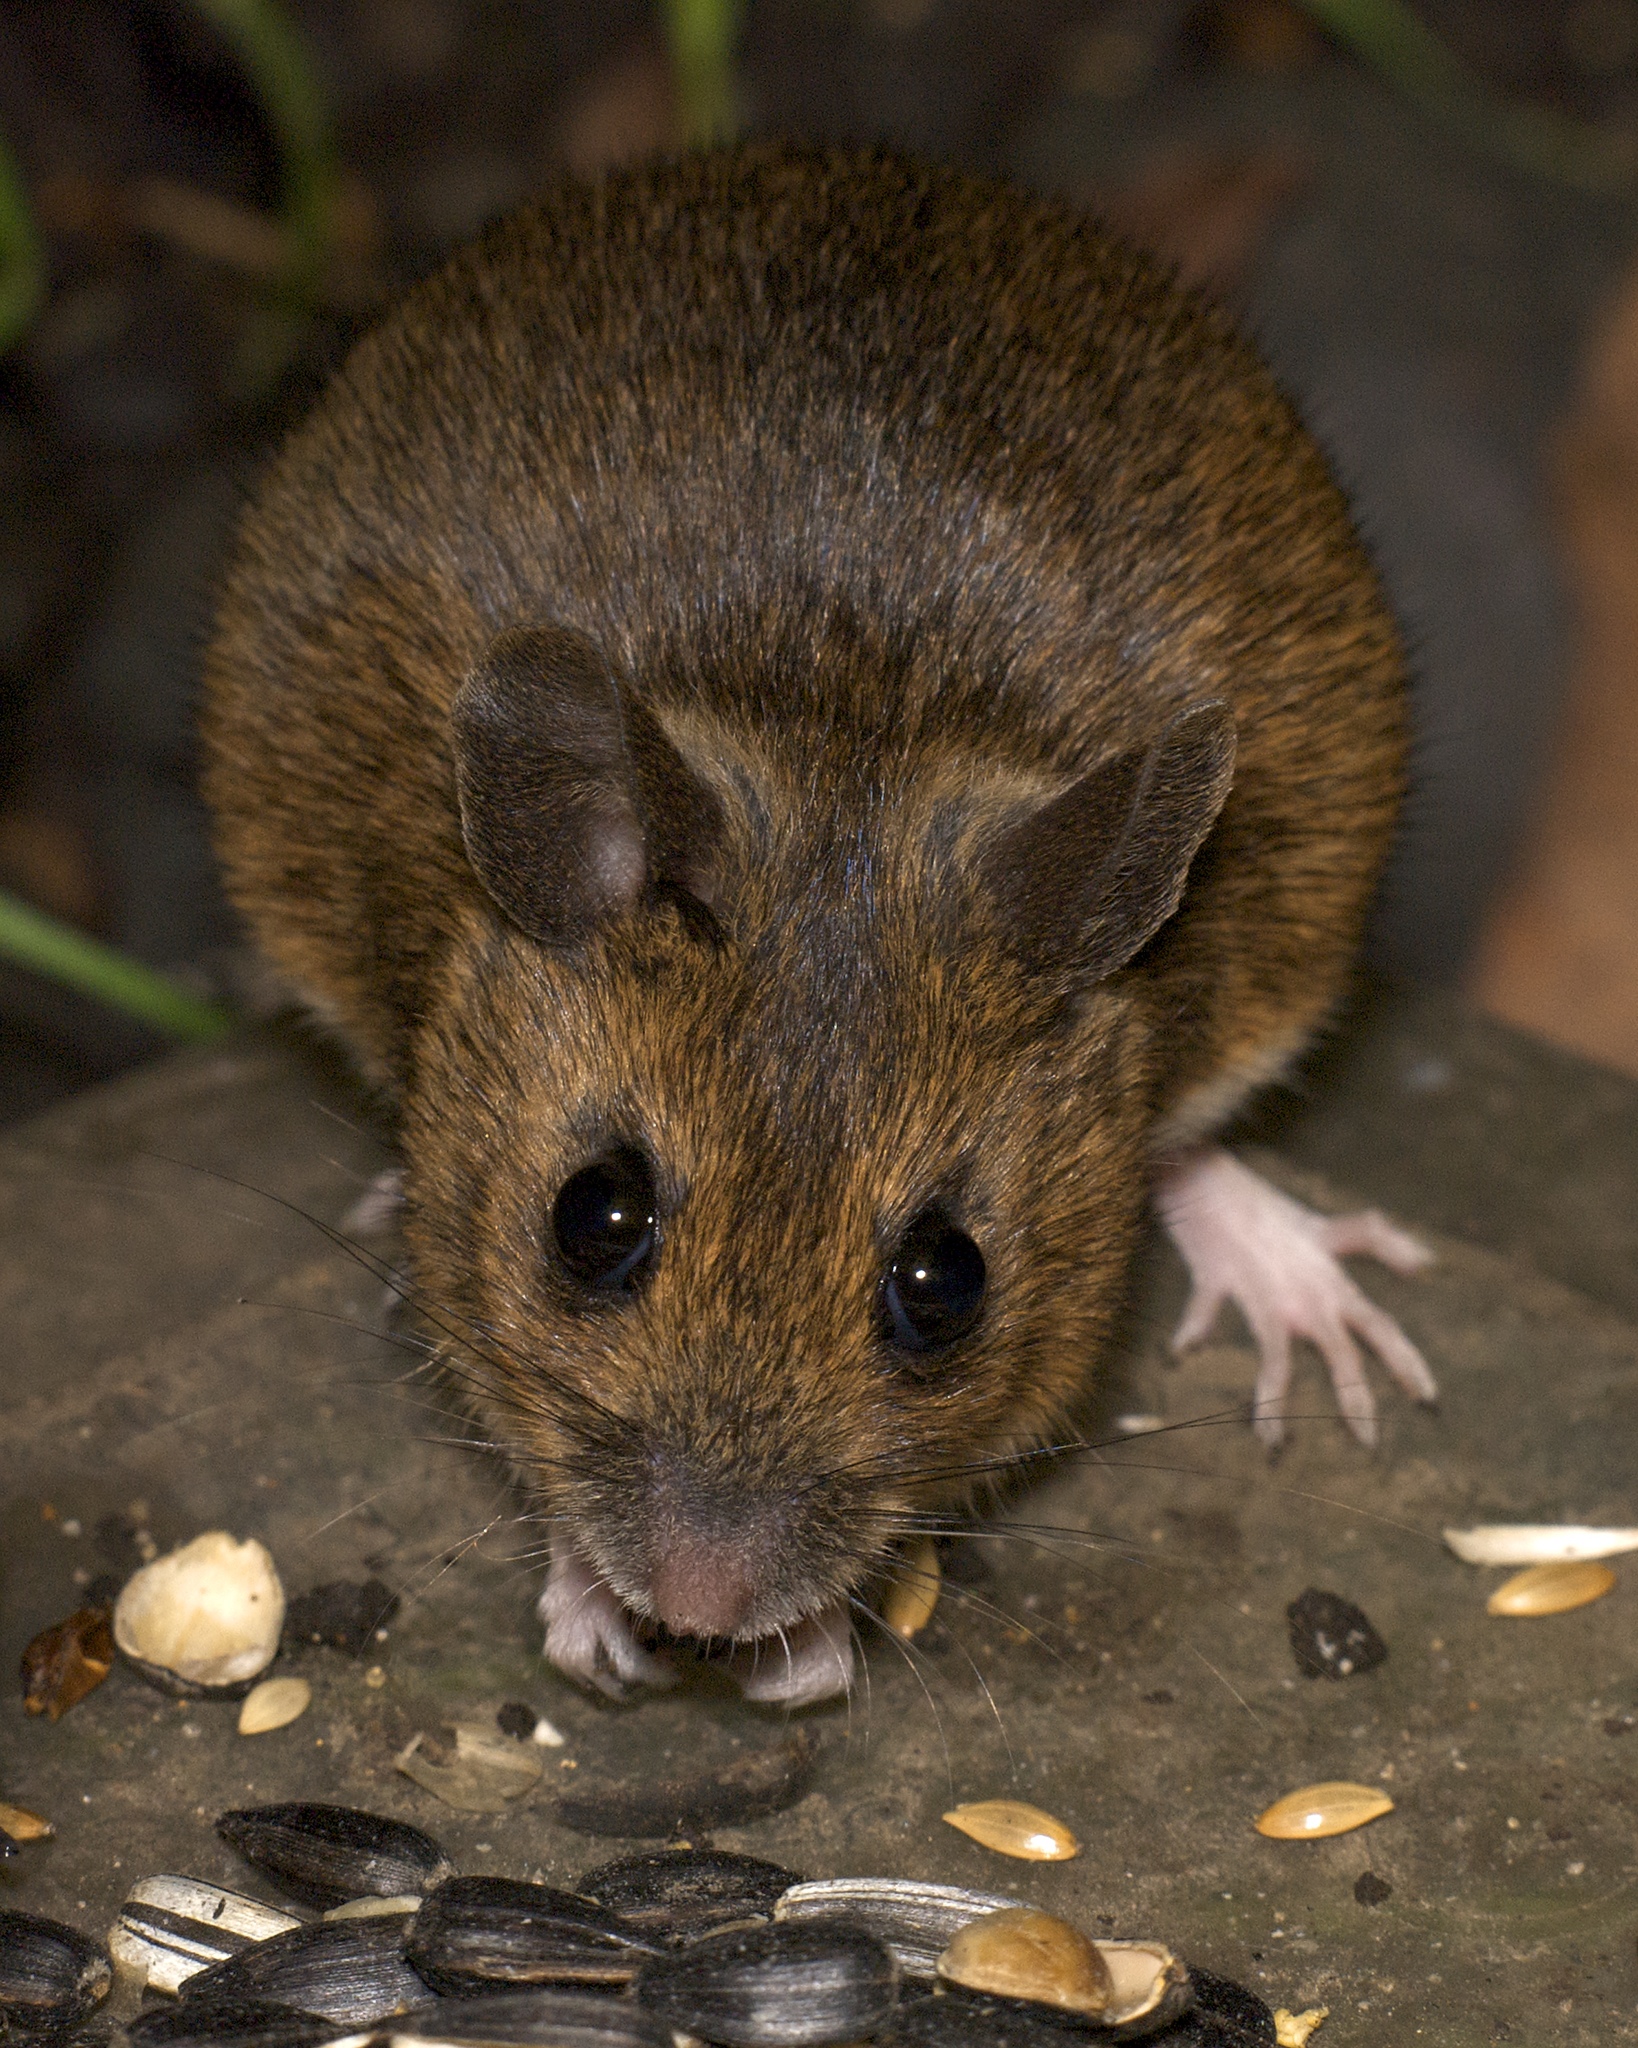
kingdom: Animalia
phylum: Chordata
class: Mammalia
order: Rodentia
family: Muridae
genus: Apodemus
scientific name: Apodemus sylvaticus
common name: Wood mouse
